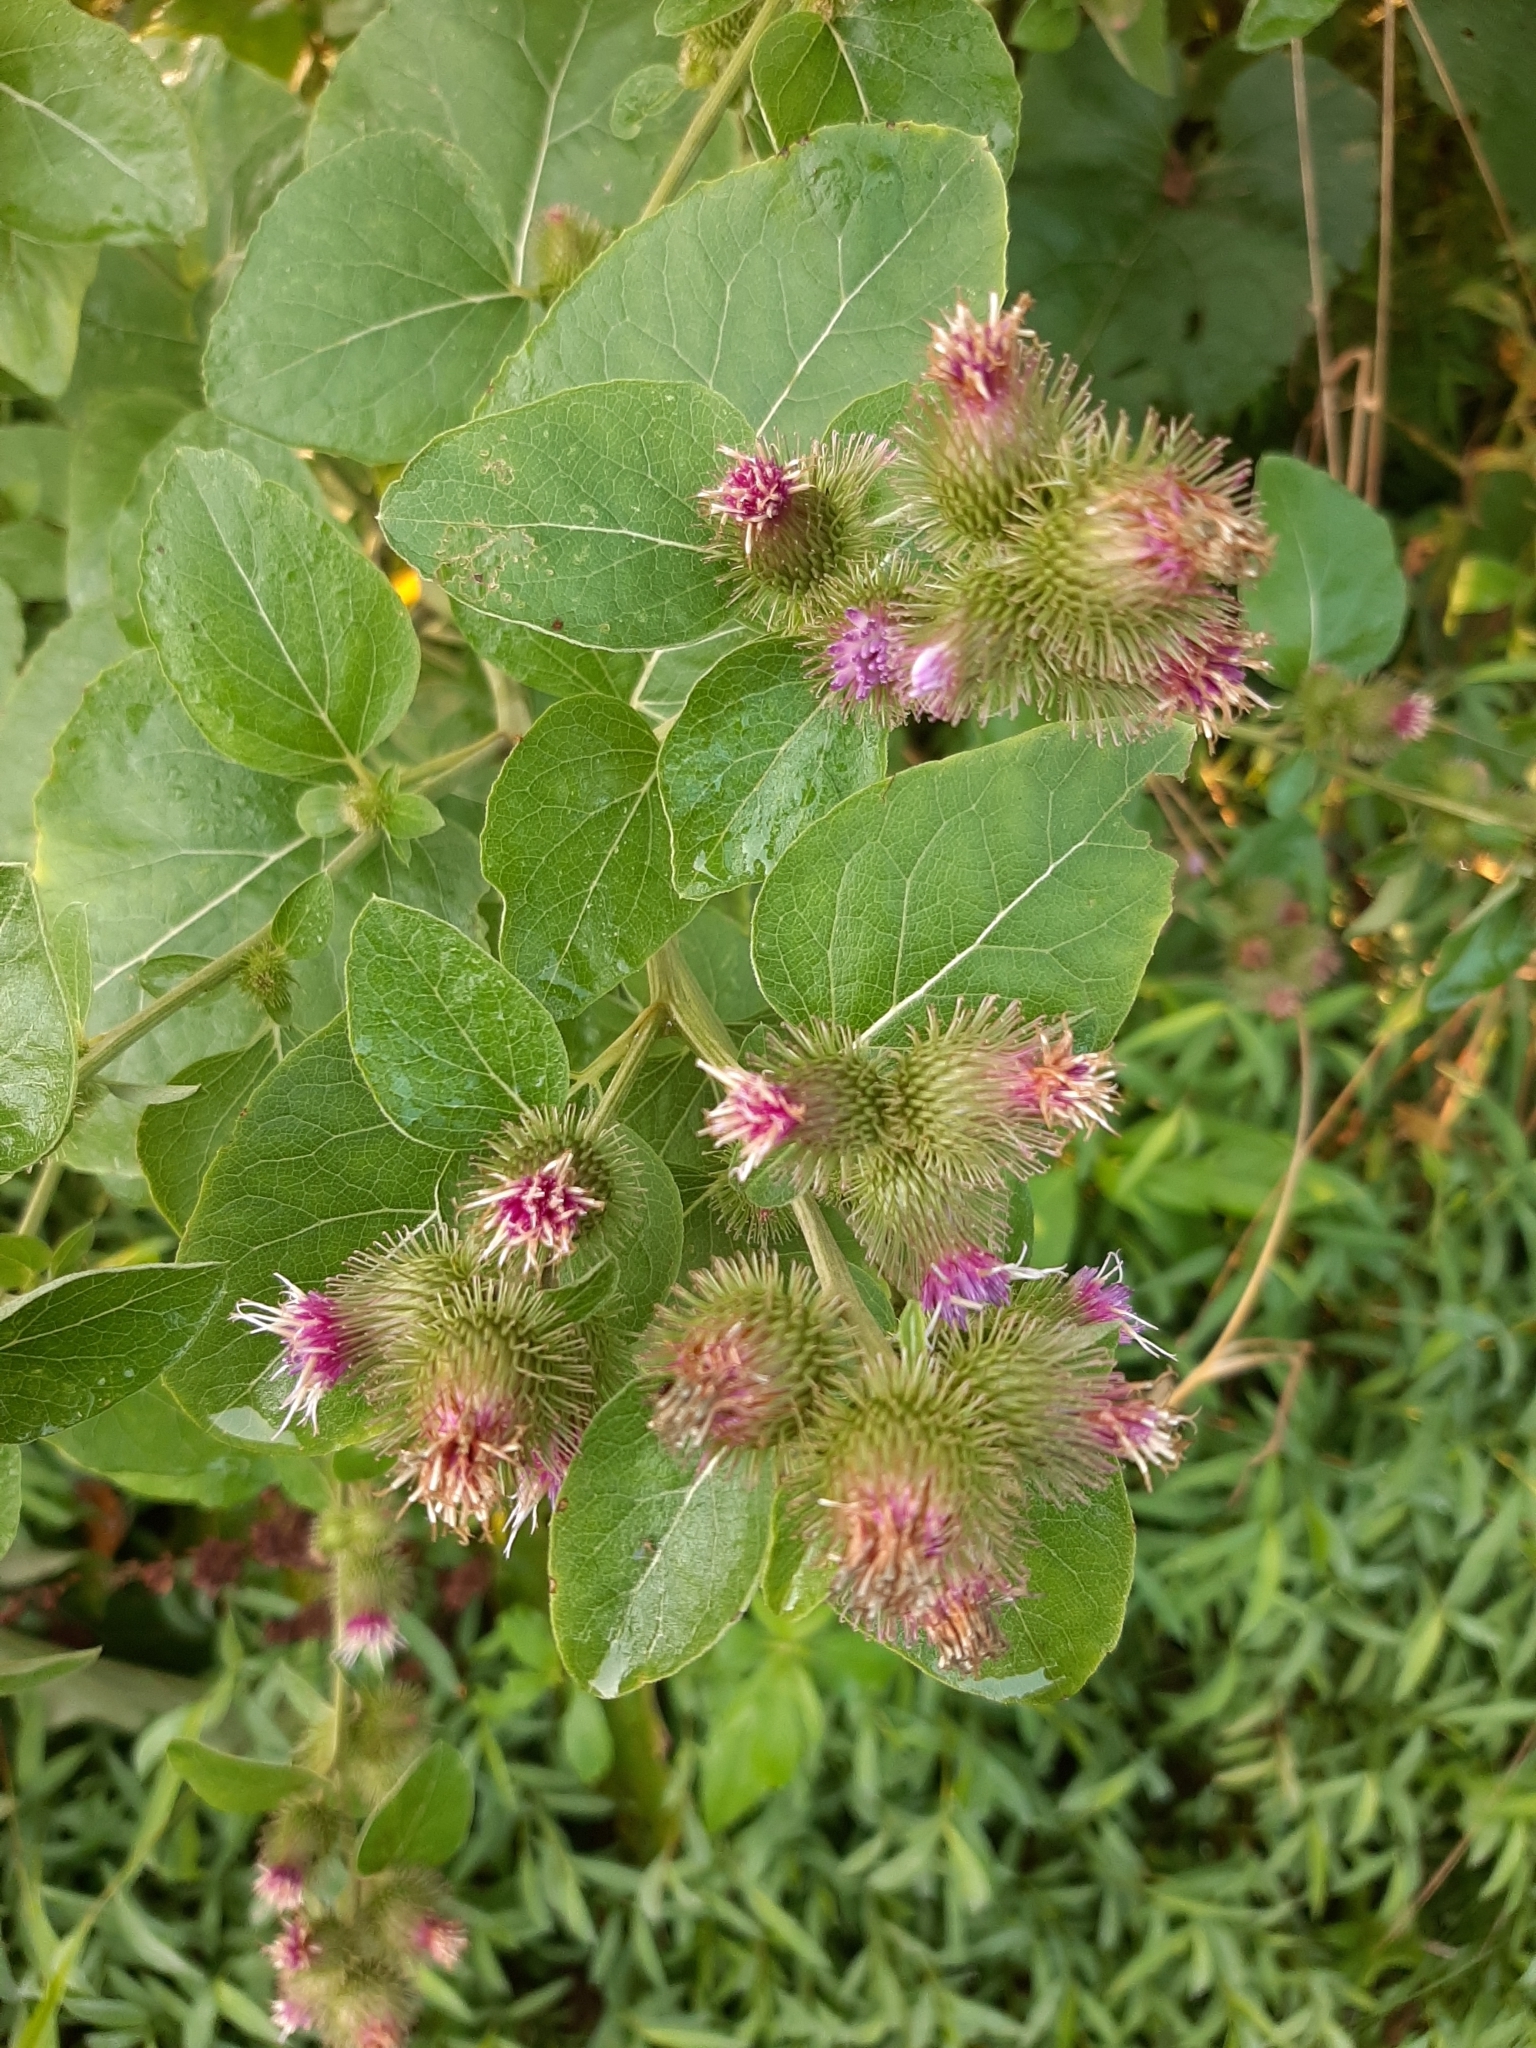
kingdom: Plantae
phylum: Tracheophyta
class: Magnoliopsida
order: Asterales
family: Asteraceae
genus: Arctium
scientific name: Arctium minus
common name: Lesser burdock
